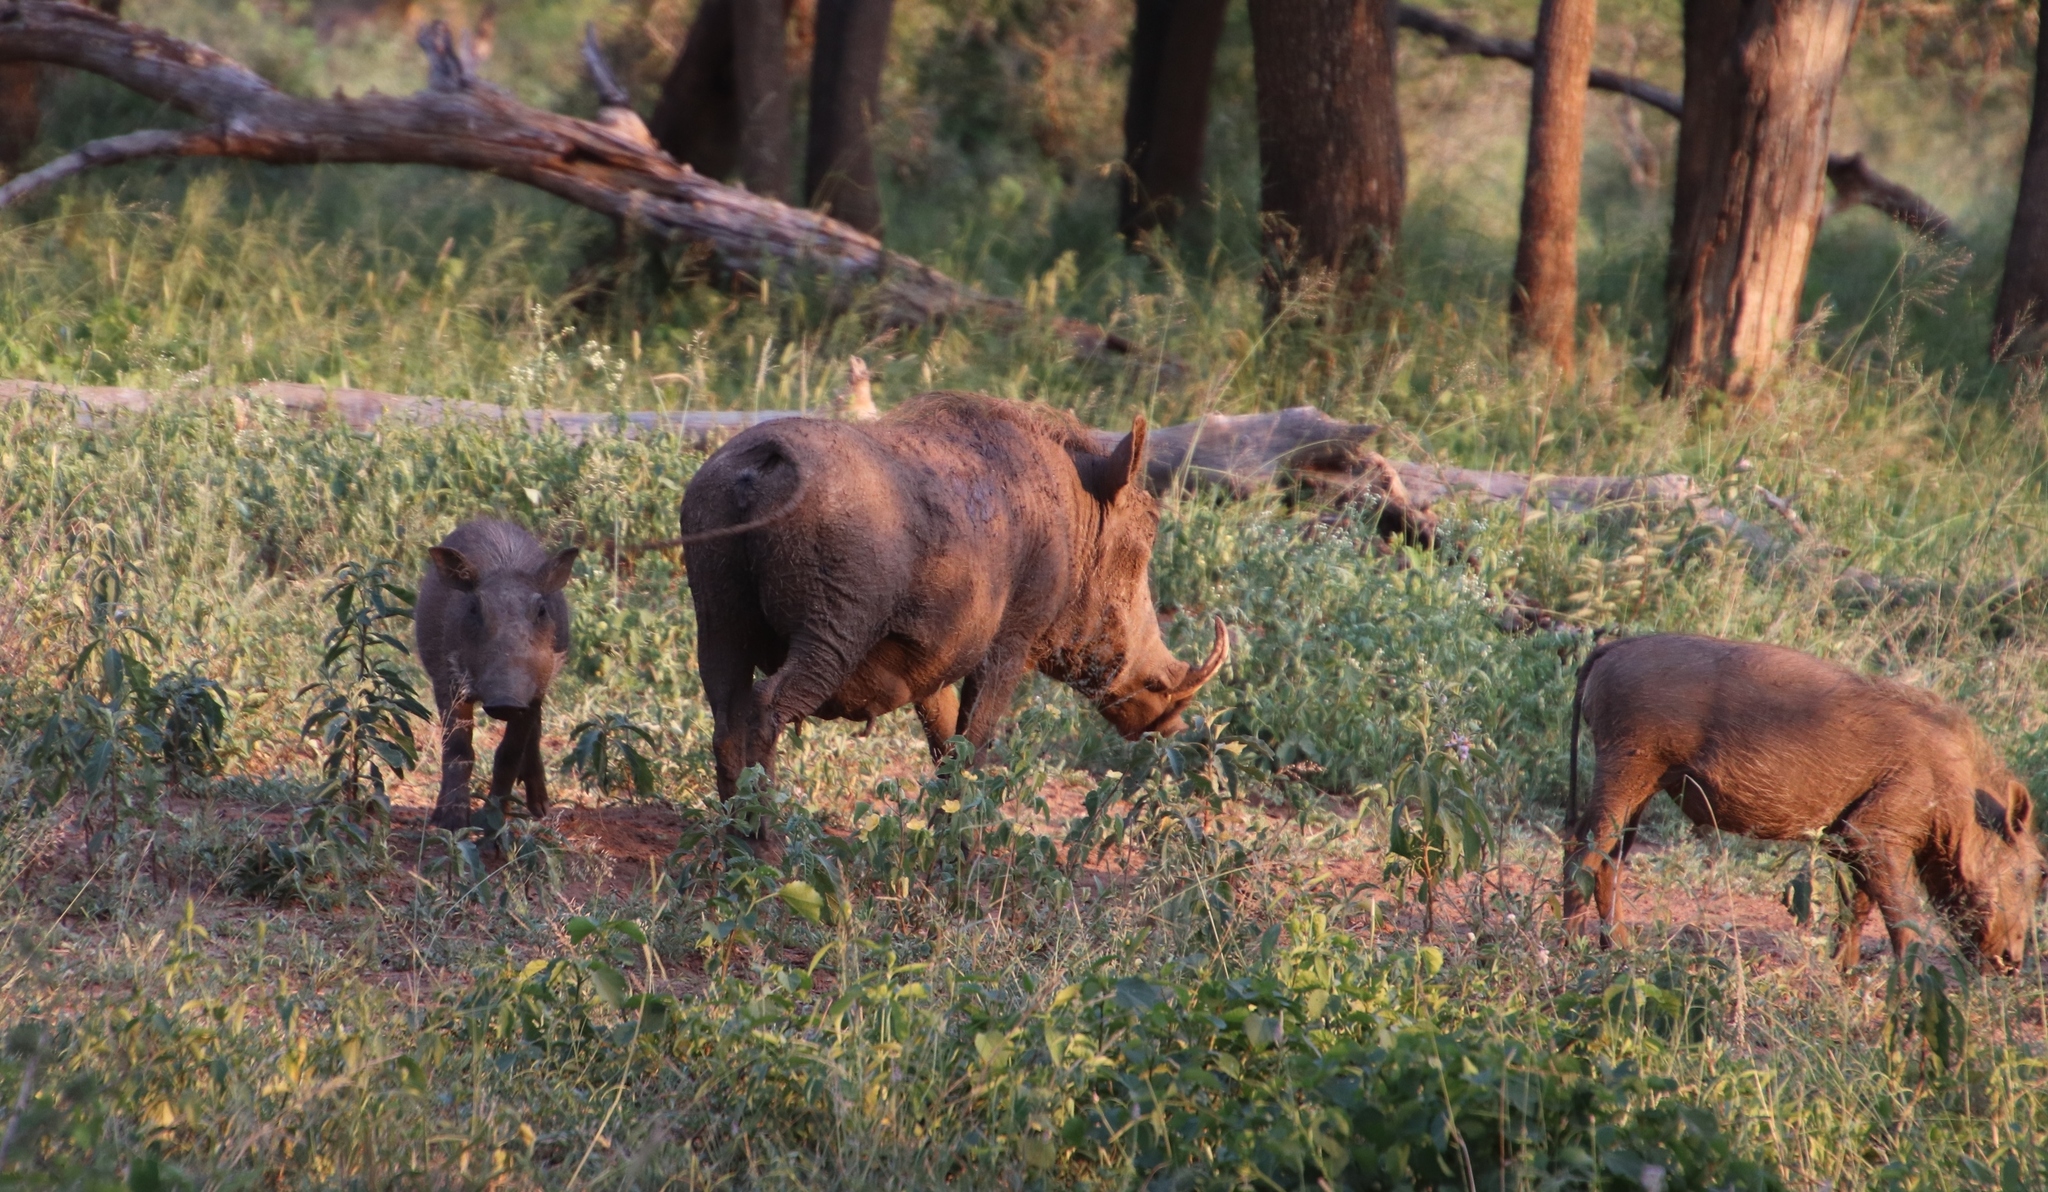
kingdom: Animalia
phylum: Chordata
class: Mammalia
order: Artiodactyla
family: Suidae
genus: Phacochoerus
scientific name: Phacochoerus africanus
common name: Common warthog
